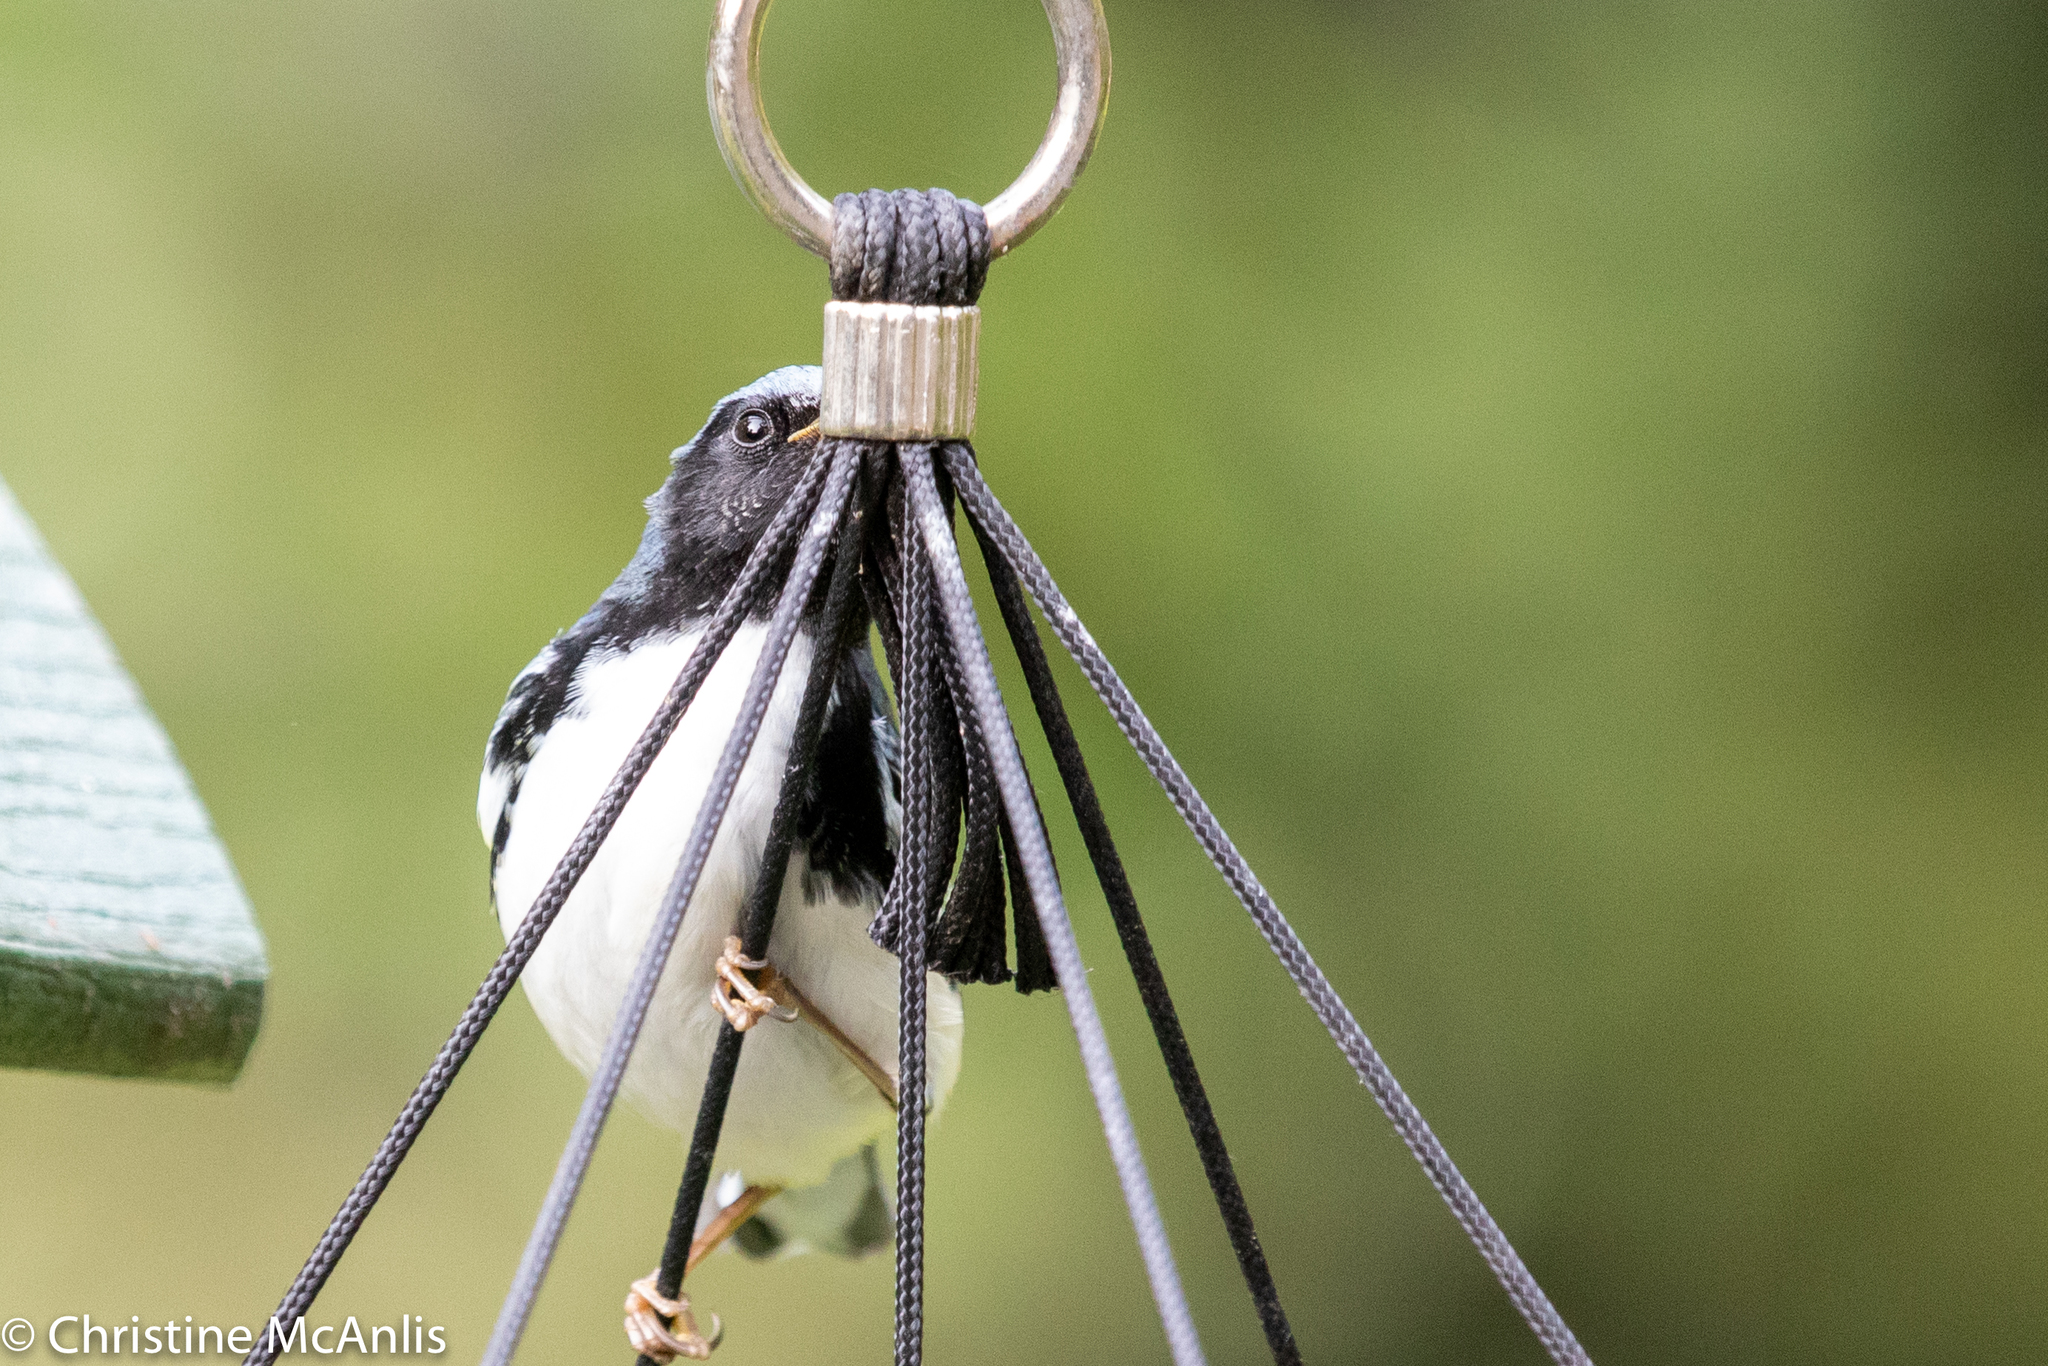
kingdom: Animalia
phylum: Chordata
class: Aves
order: Passeriformes
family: Parulidae
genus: Setophaga
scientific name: Setophaga caerulescens
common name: Black-throated blue warbler
